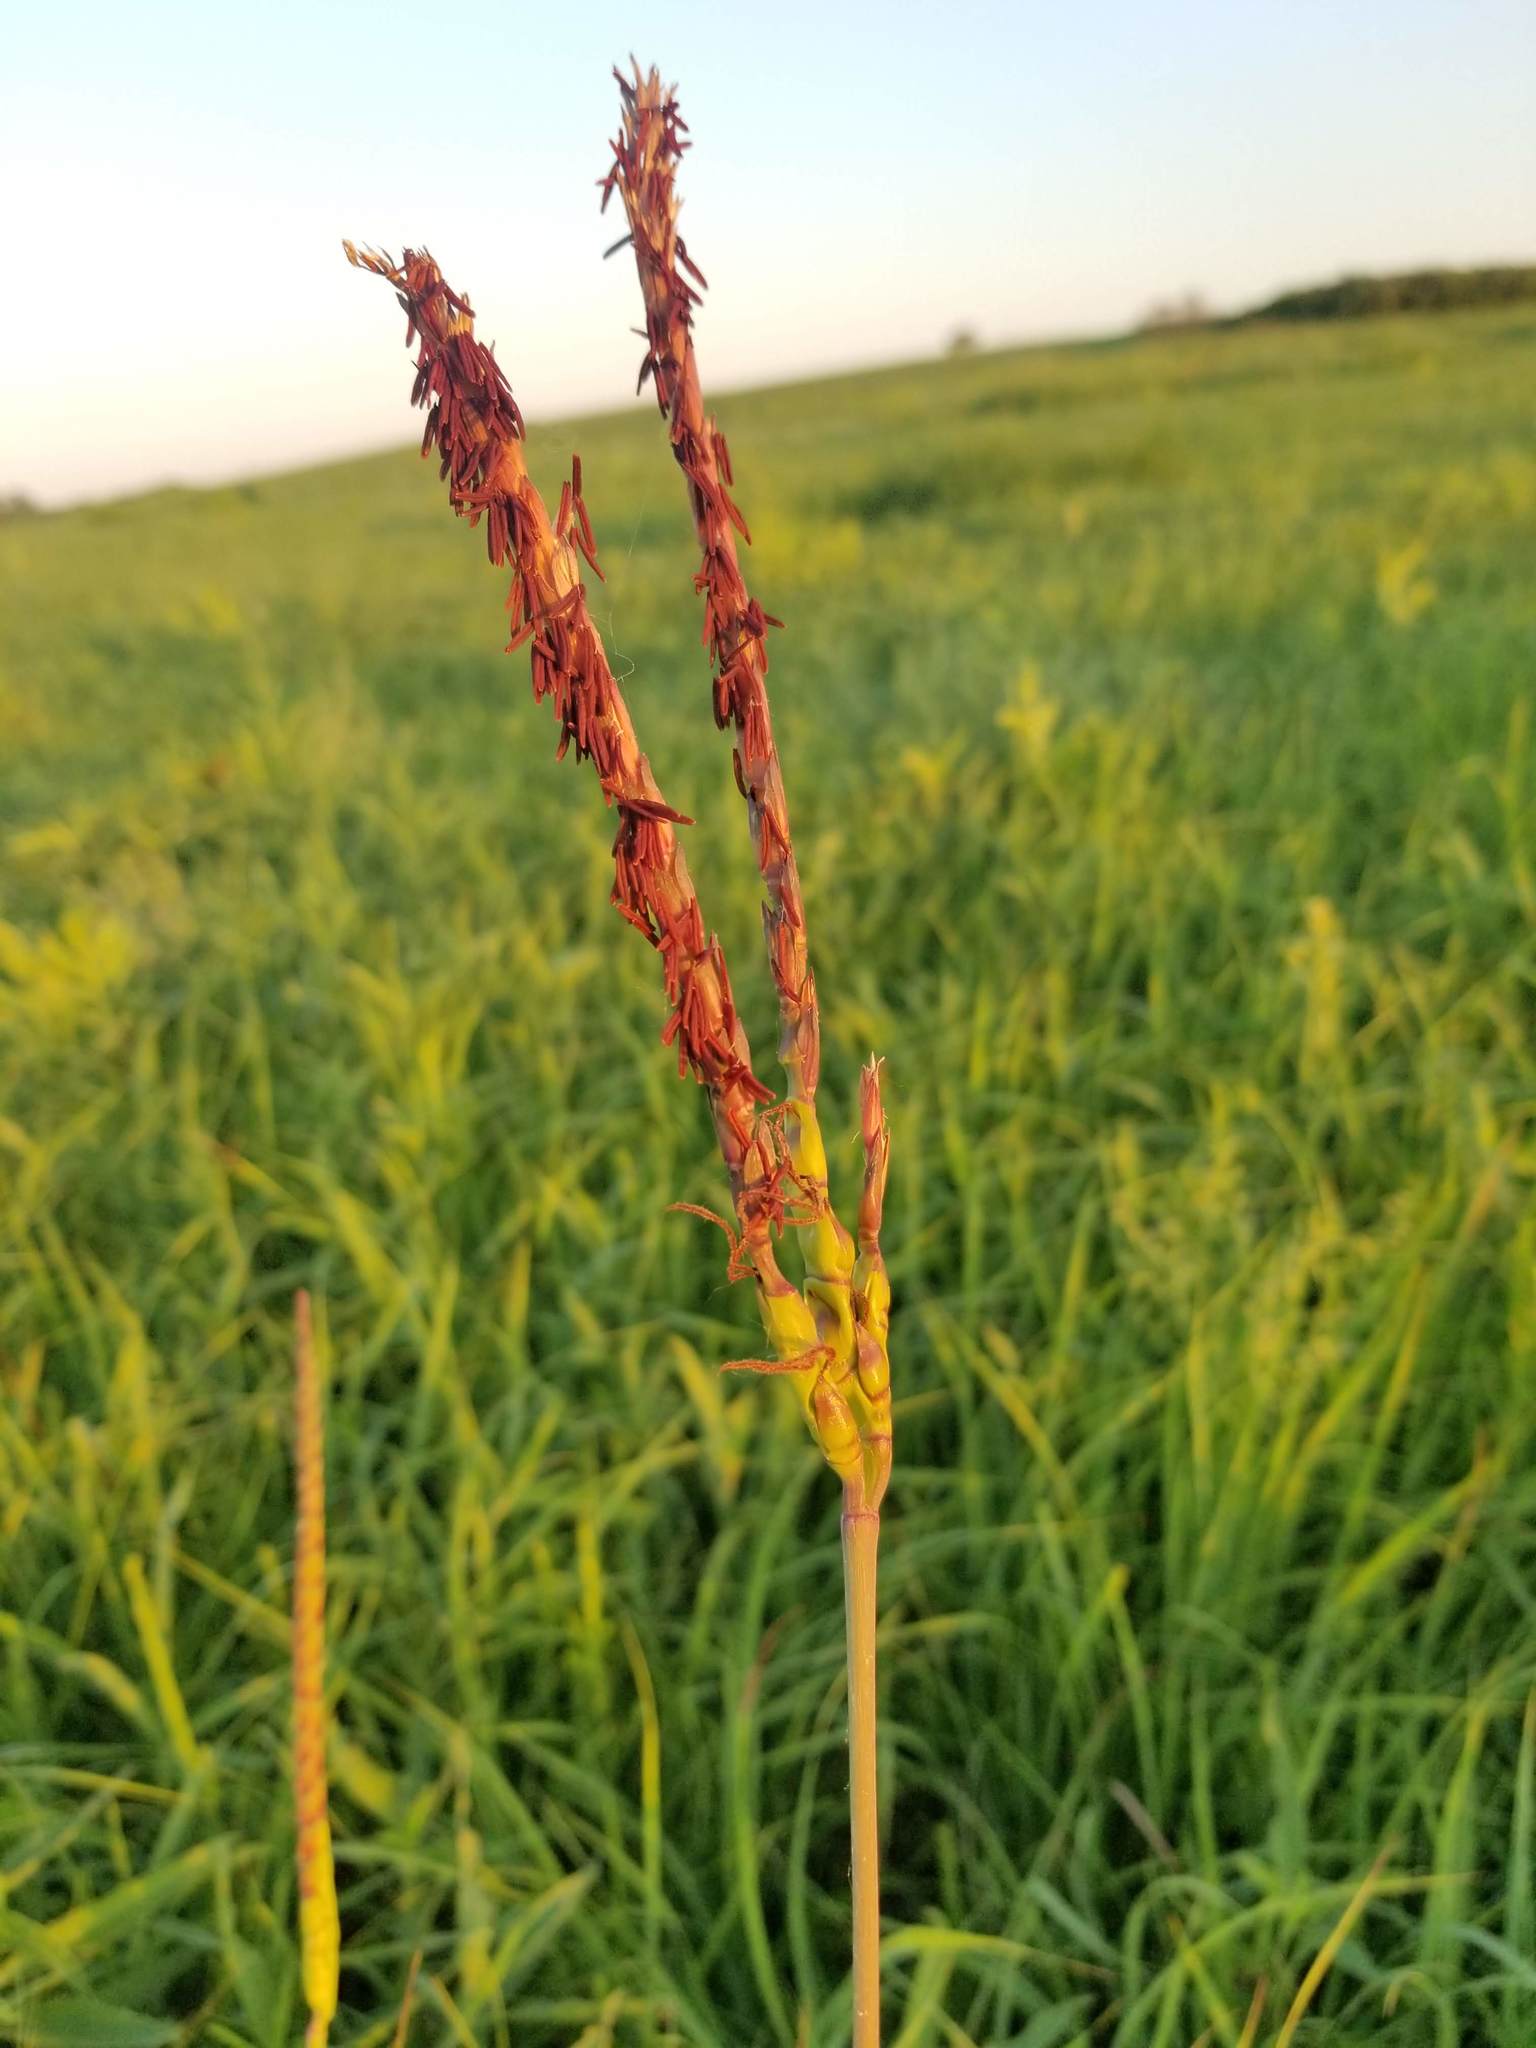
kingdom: Plantae
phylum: Tracheophyta
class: Liliopsida
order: Poales
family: Poaceae
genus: Tripsacum
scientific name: Tripsacum dactyloides
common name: Buffalo-grass
